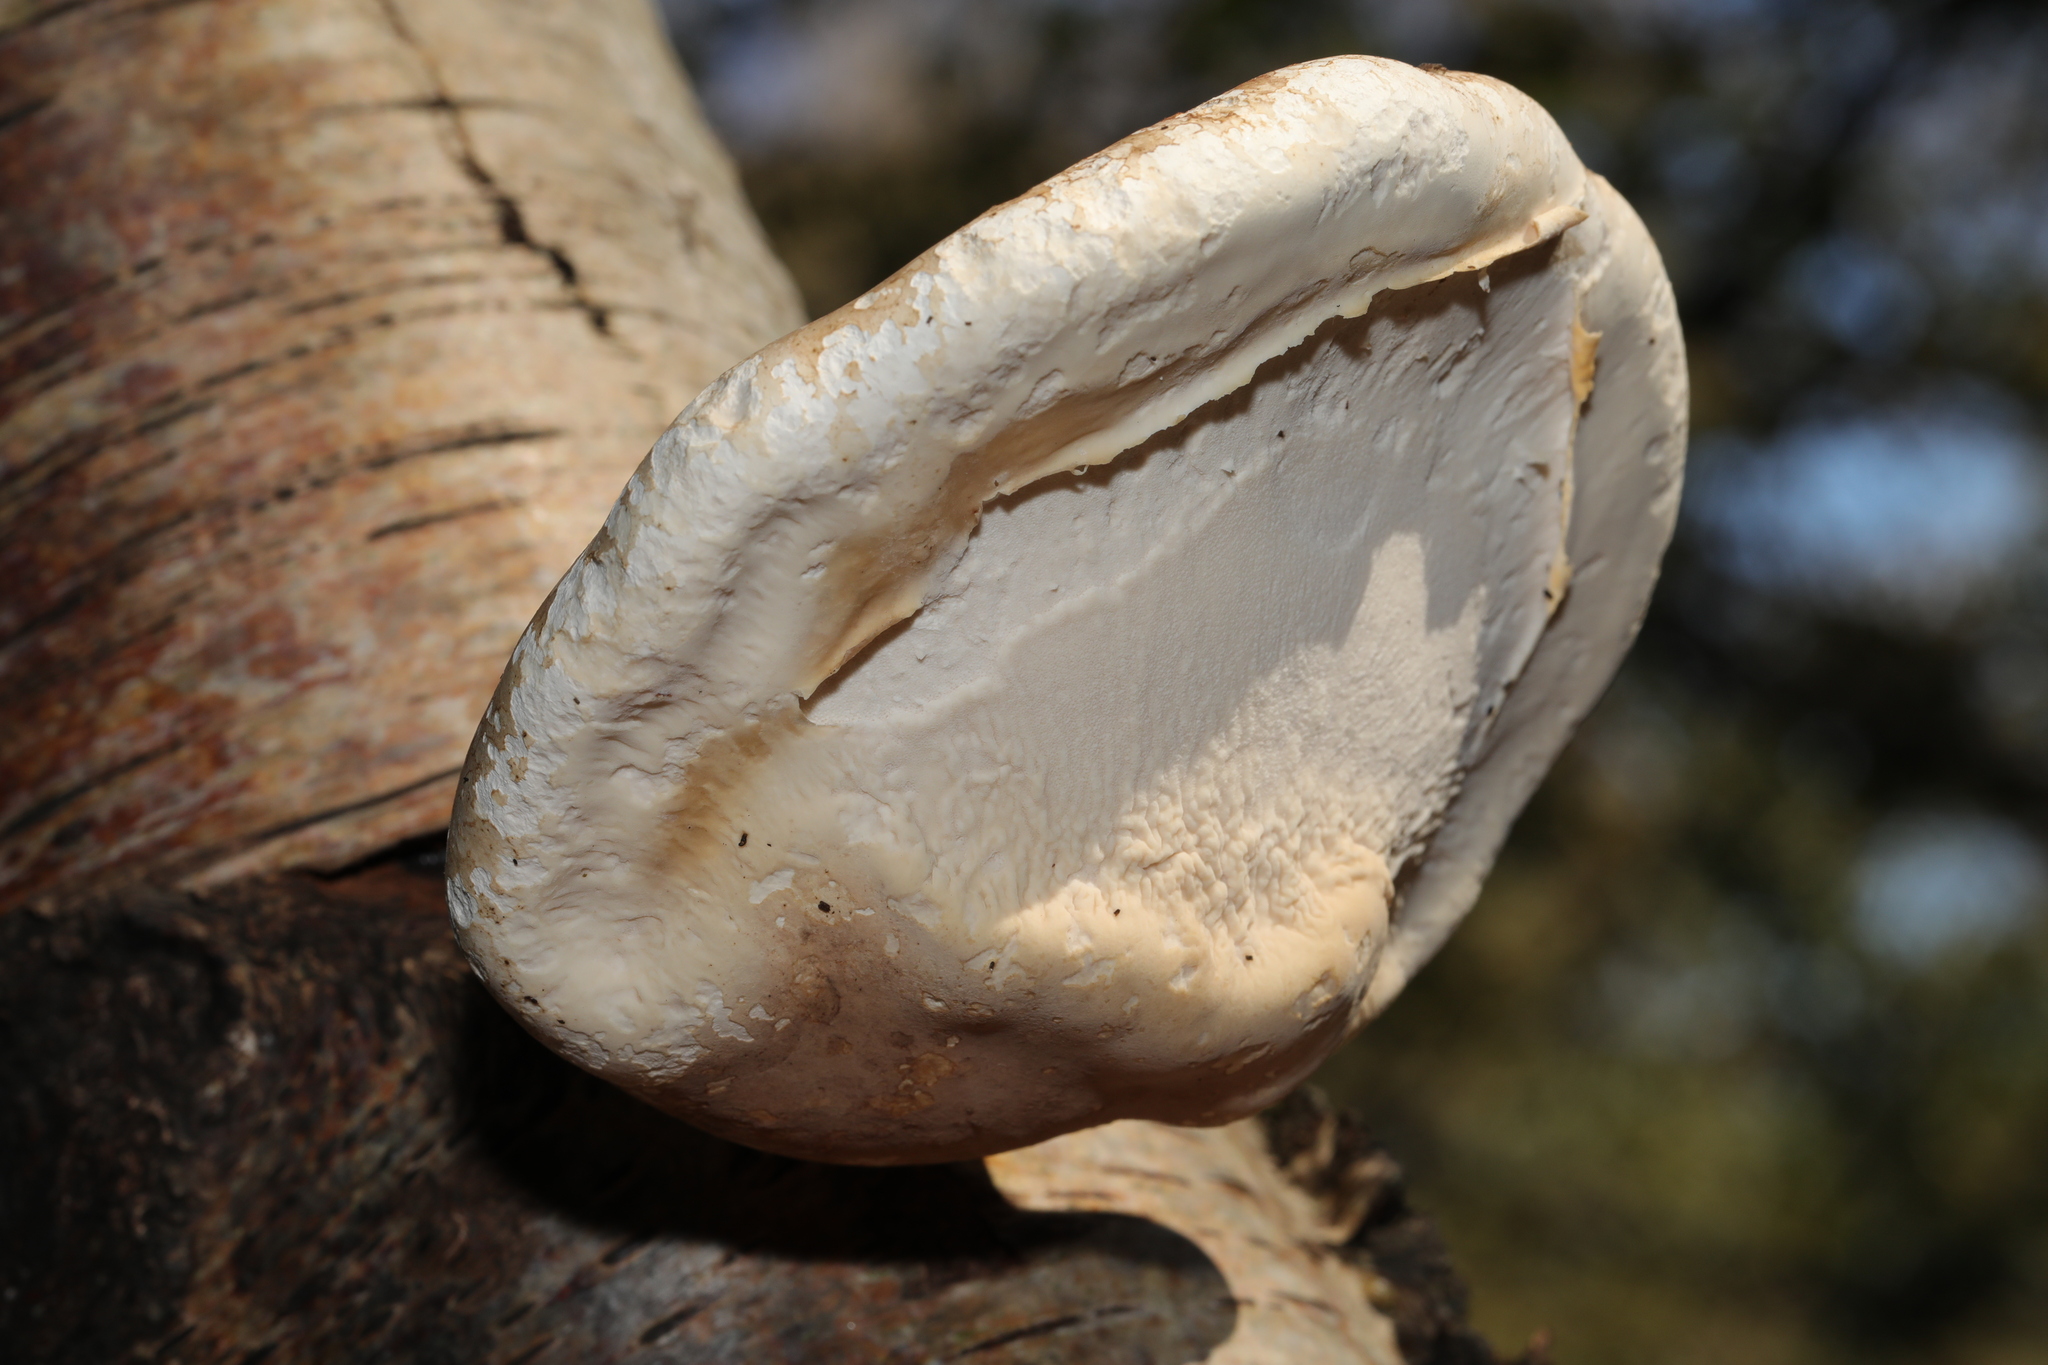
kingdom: Fungi
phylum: Basidiomycota
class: Agaricomycetes
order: Polyporales
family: Fomitopsidaceae
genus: Fomitopsis
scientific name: Fomitopsis betulina
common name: Birch polypore
